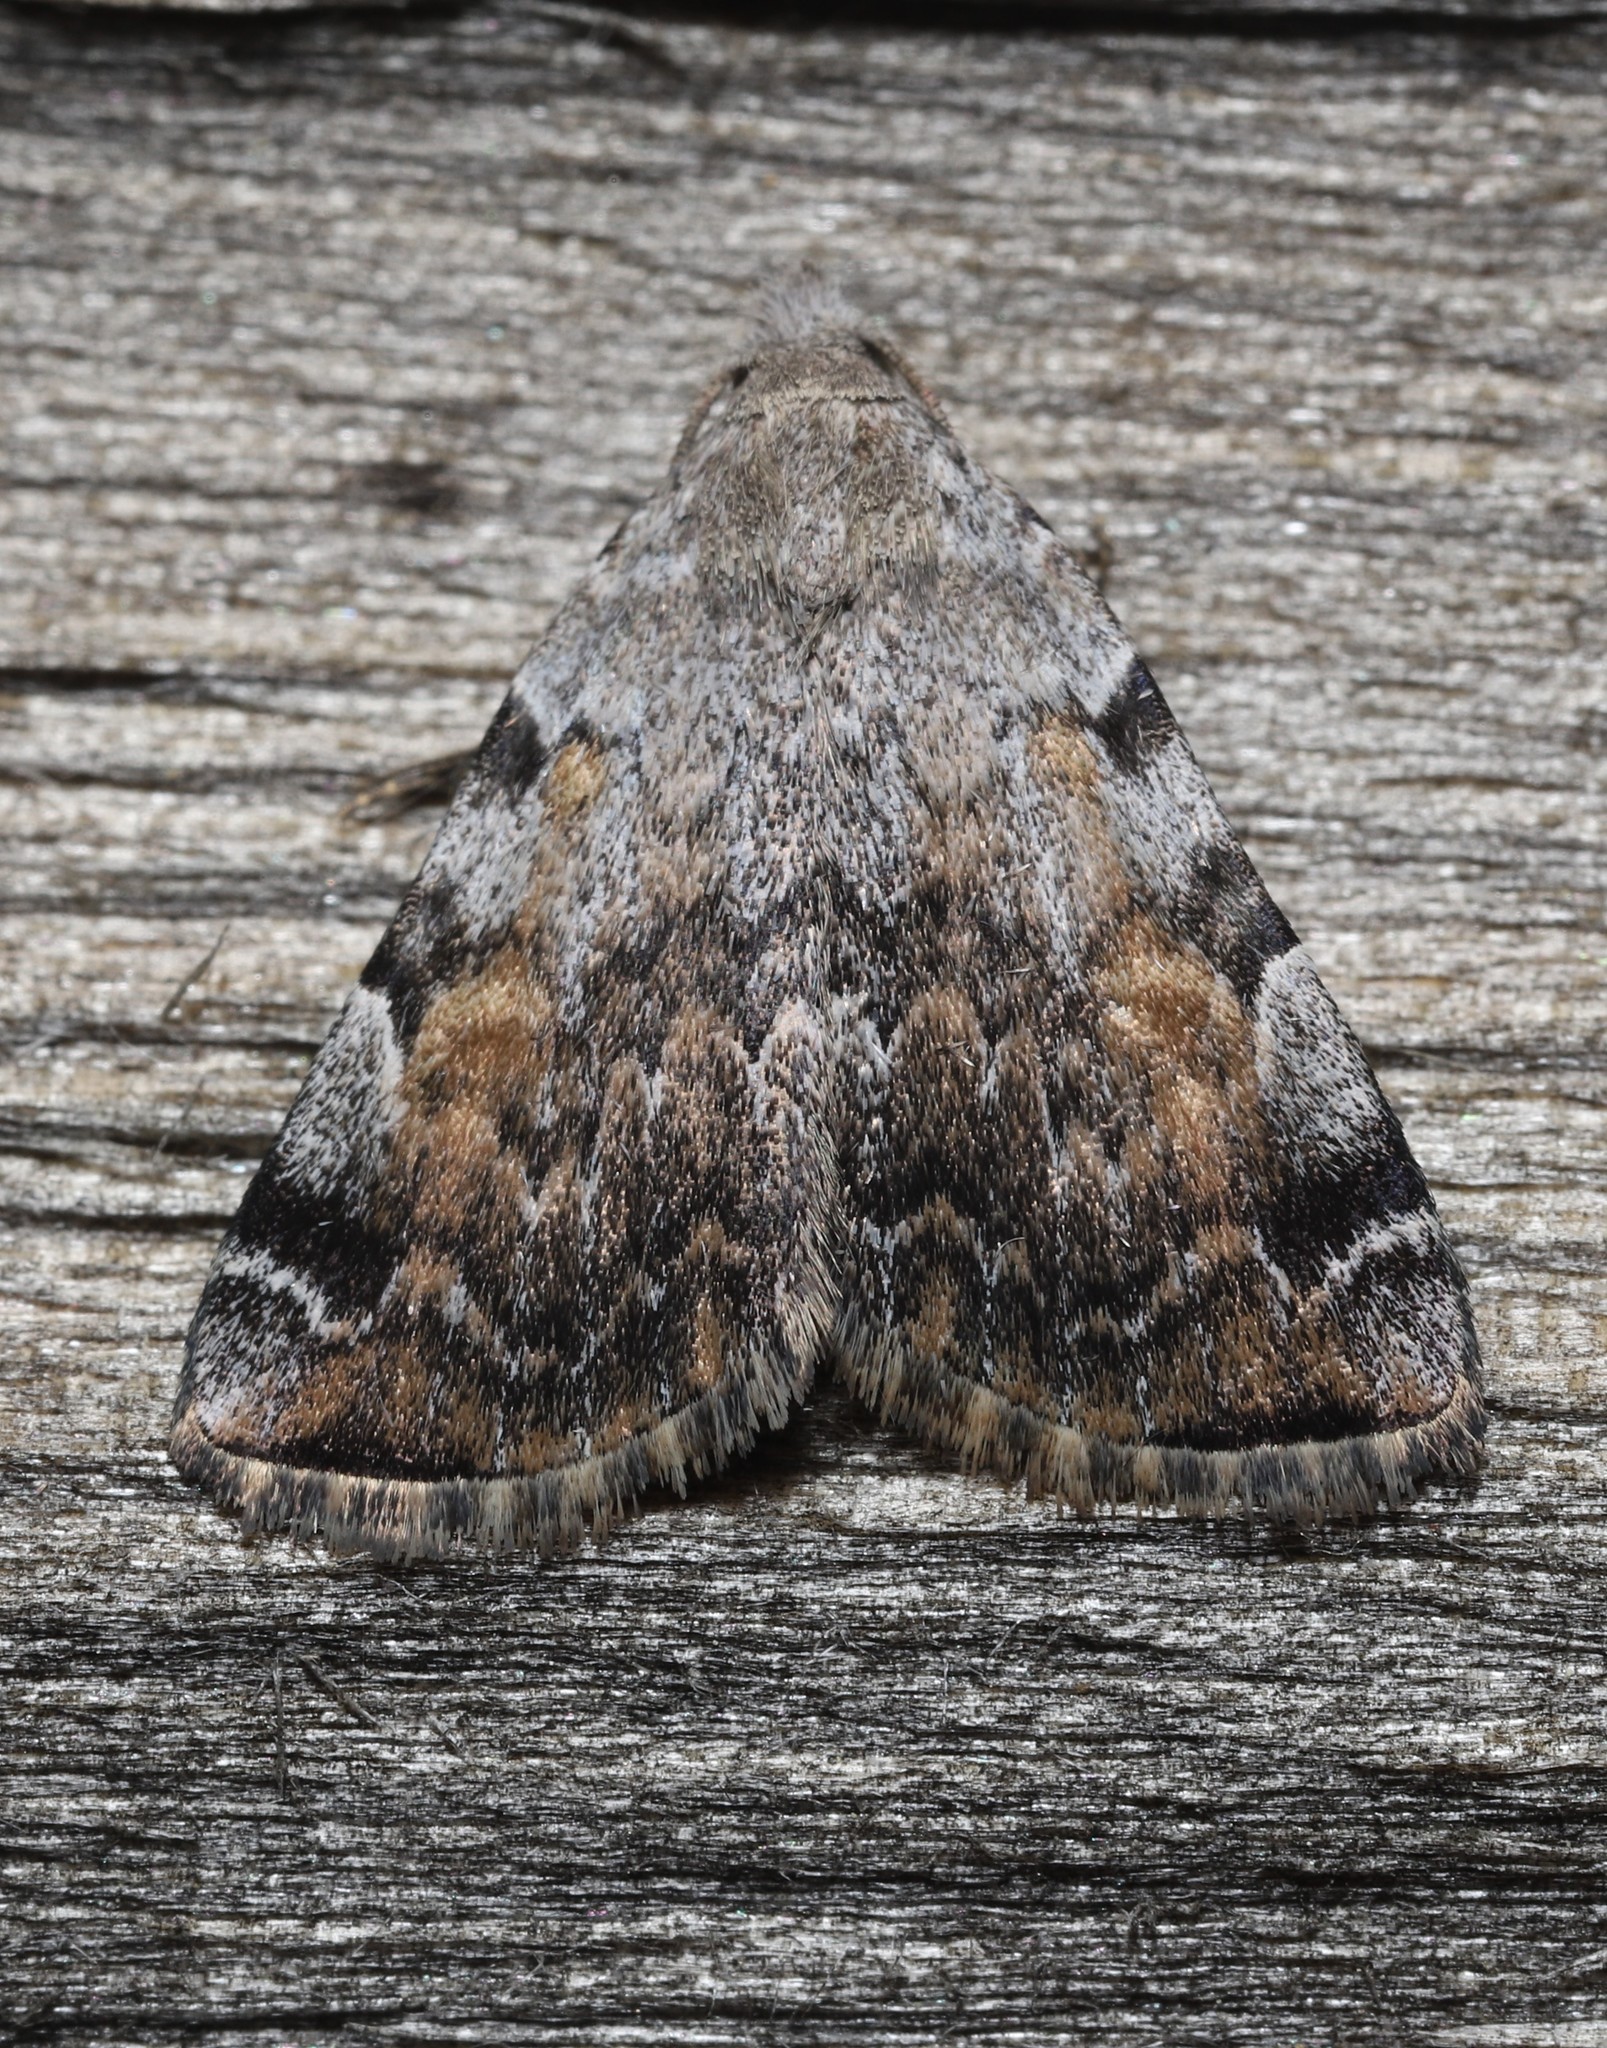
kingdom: Animalia
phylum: Arthropoda
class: Insecta
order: Lepidoptera
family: Erebidae
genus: Idia
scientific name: Idia americalis
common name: American idia moth
